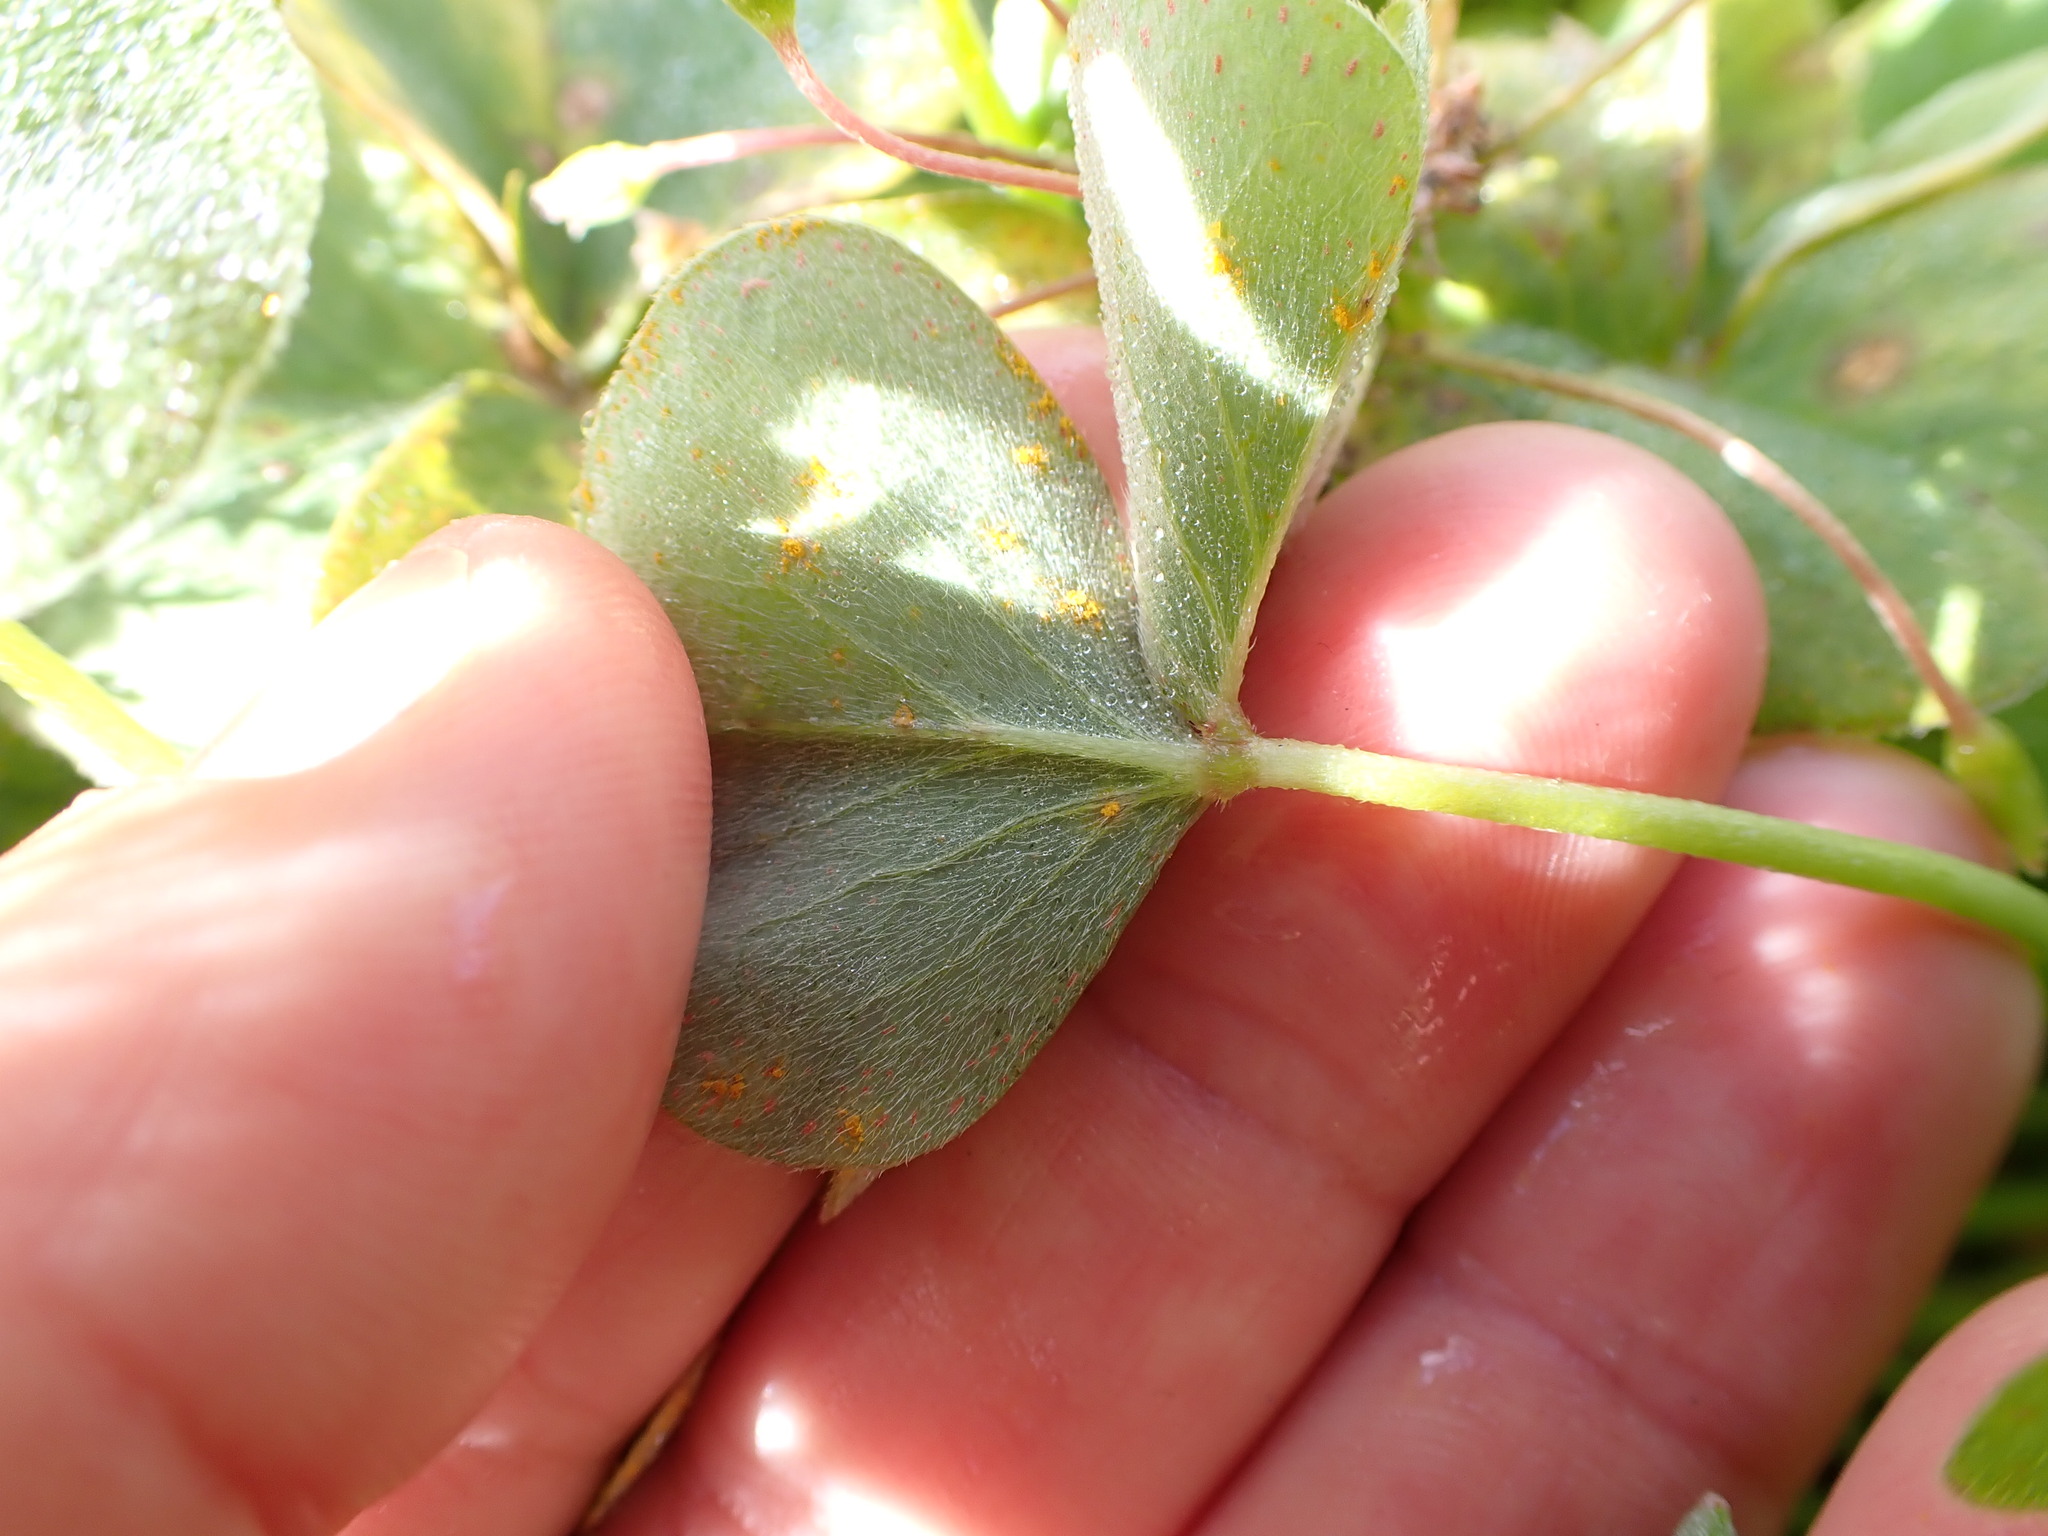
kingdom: Fungi
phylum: Basidiomycota
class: Pucciniomycetes
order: Pucciniales
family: Pucciniaceae
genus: Puccinia
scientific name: Puccinia oxalidis
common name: Oxalis rust
